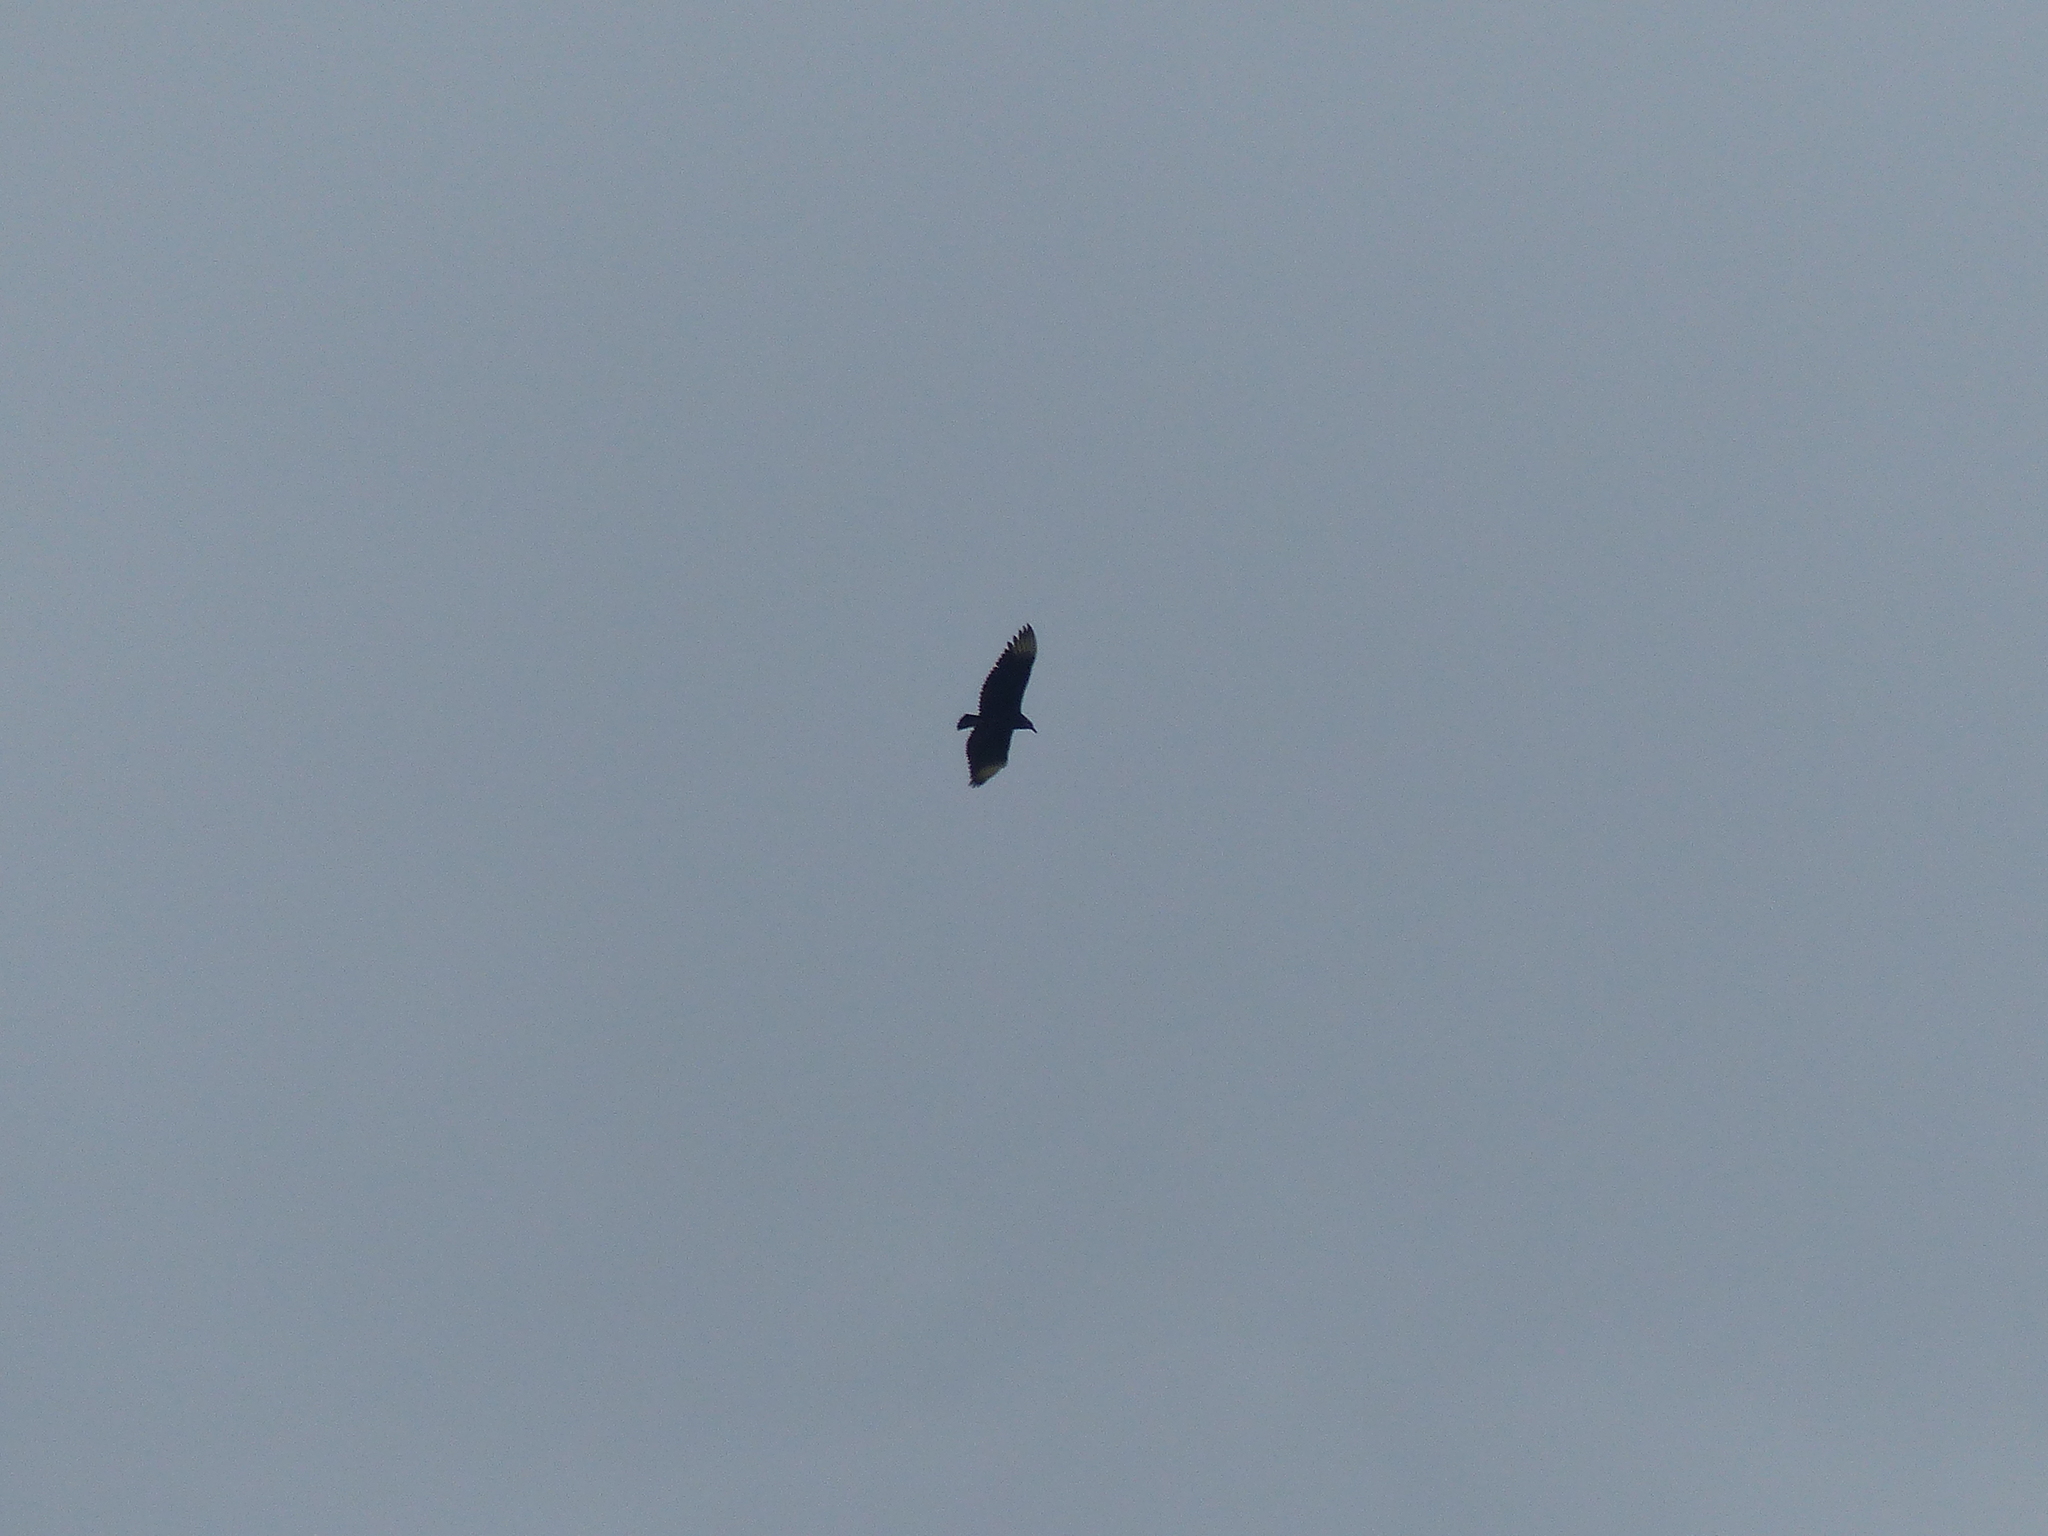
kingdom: Animalia
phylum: Chordata
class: Aves
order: Accipitriformes
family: Cathartidae
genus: Coragyps
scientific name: Coragyps atratus
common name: Black vulture
